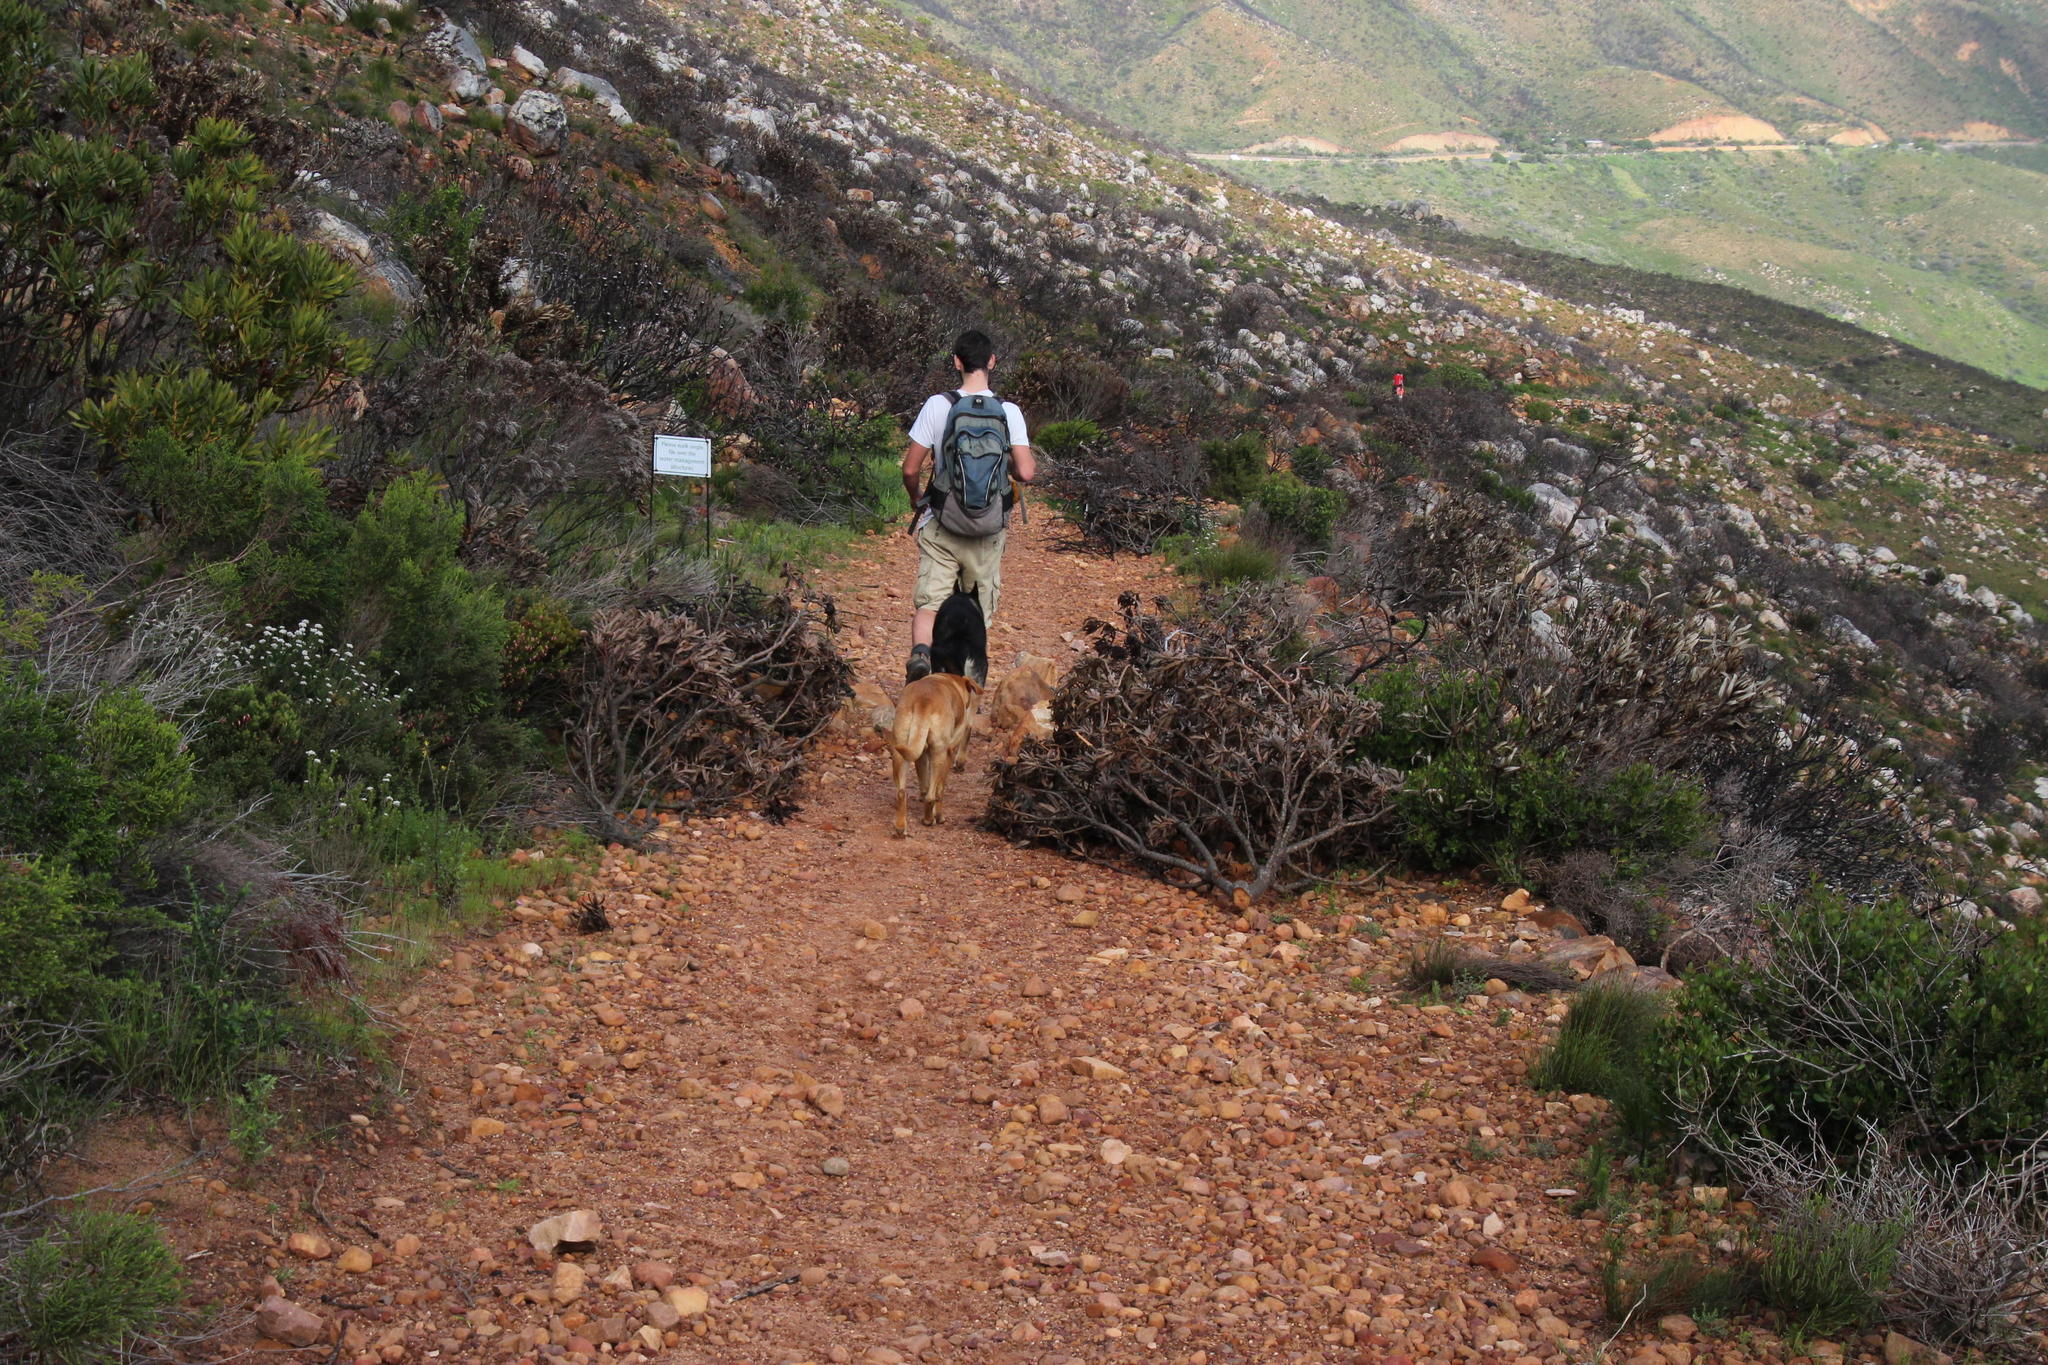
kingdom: Plantae
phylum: Tracheophyta
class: Magnoliopsida
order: Proteales
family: Proteaceae
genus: Protea
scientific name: Protea lepidocarpodendron
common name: Black-bearded protea
